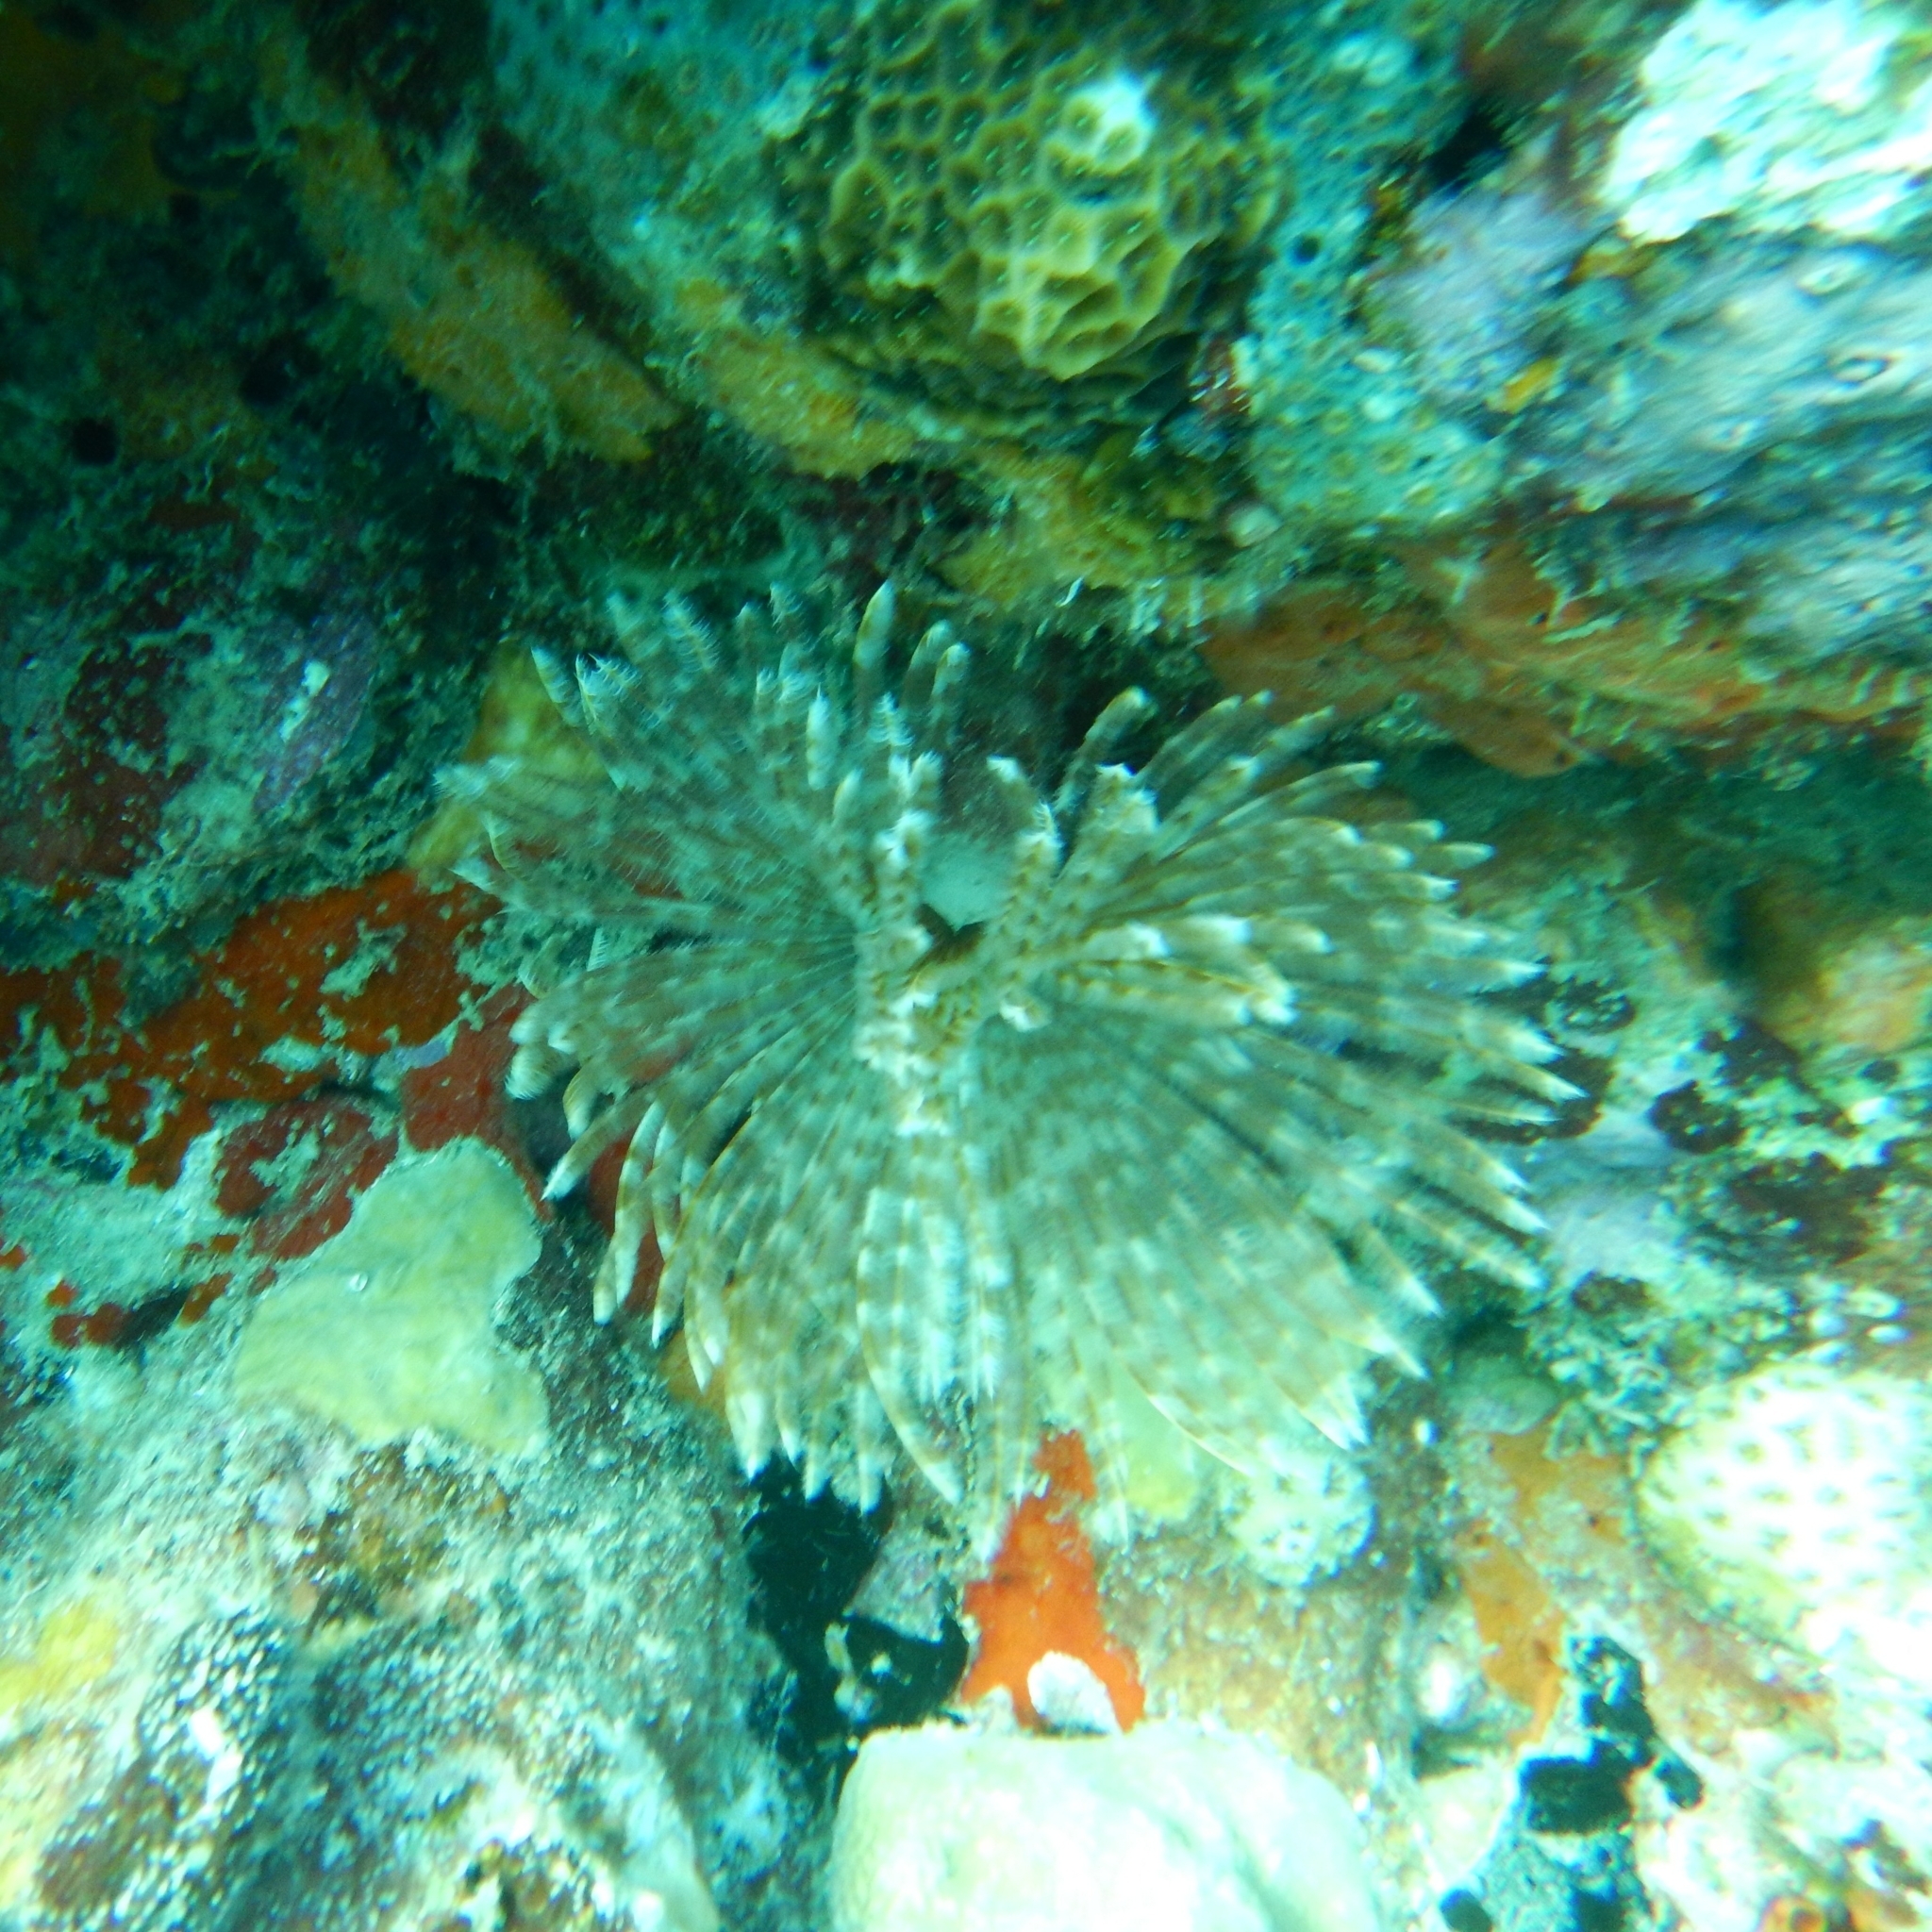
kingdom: Animalia
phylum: Annelida
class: Polychaeta
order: Sabellida
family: Sabellidae
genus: Sabellastarte
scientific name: Sabellastarte magnifica
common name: Giant feather-duster worm
